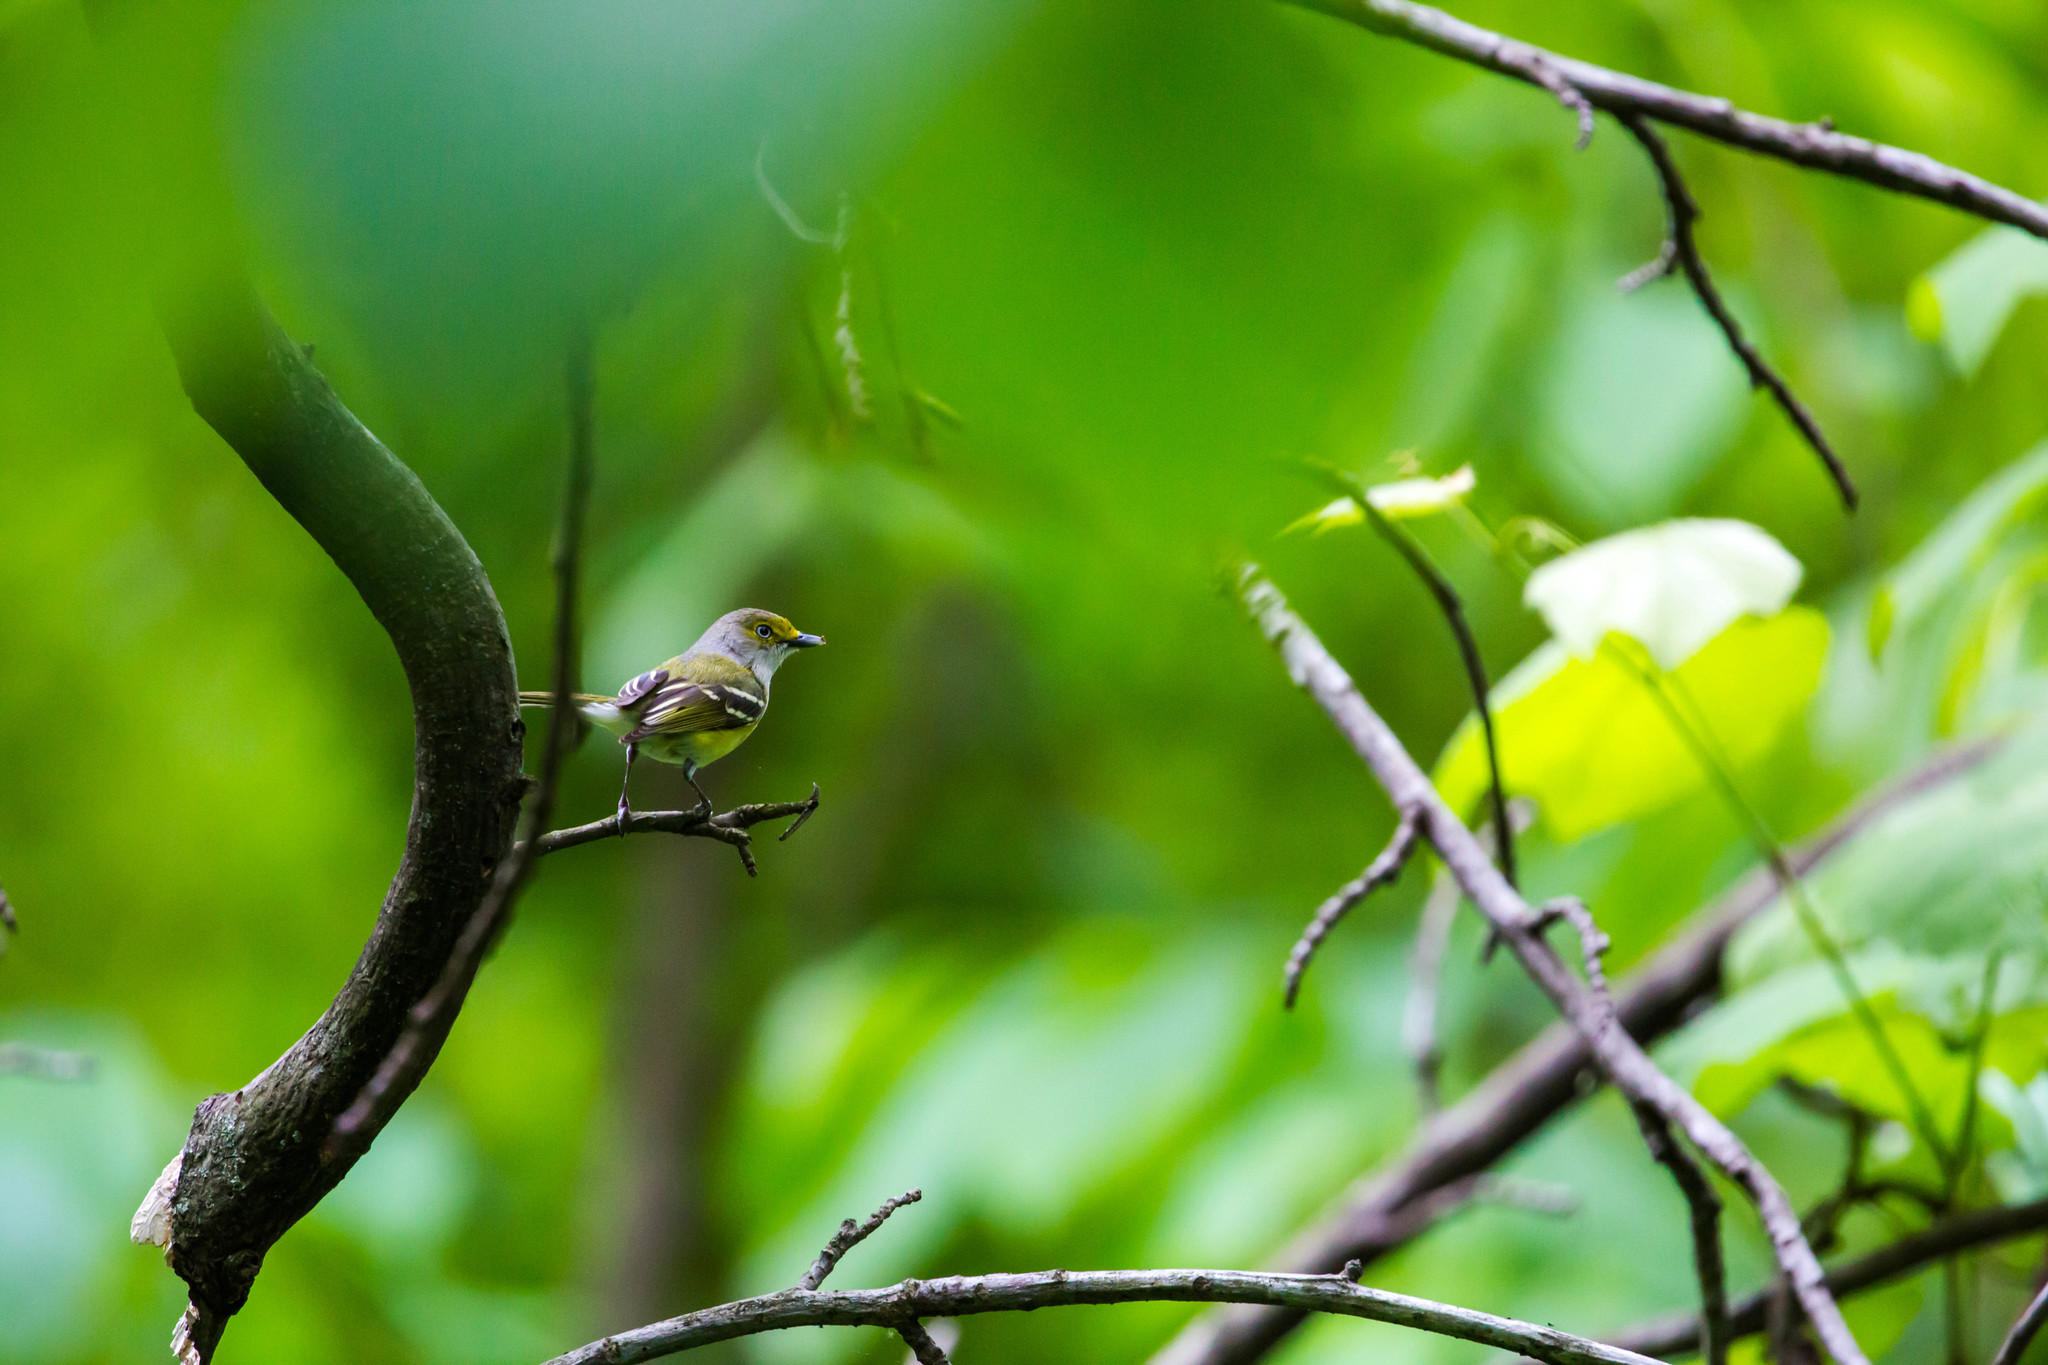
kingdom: Animalia
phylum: Chordata
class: Aves
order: Passeriformes
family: Vireonidae
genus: Vireo
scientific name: Vireo griseus
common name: White-eyed vireo
